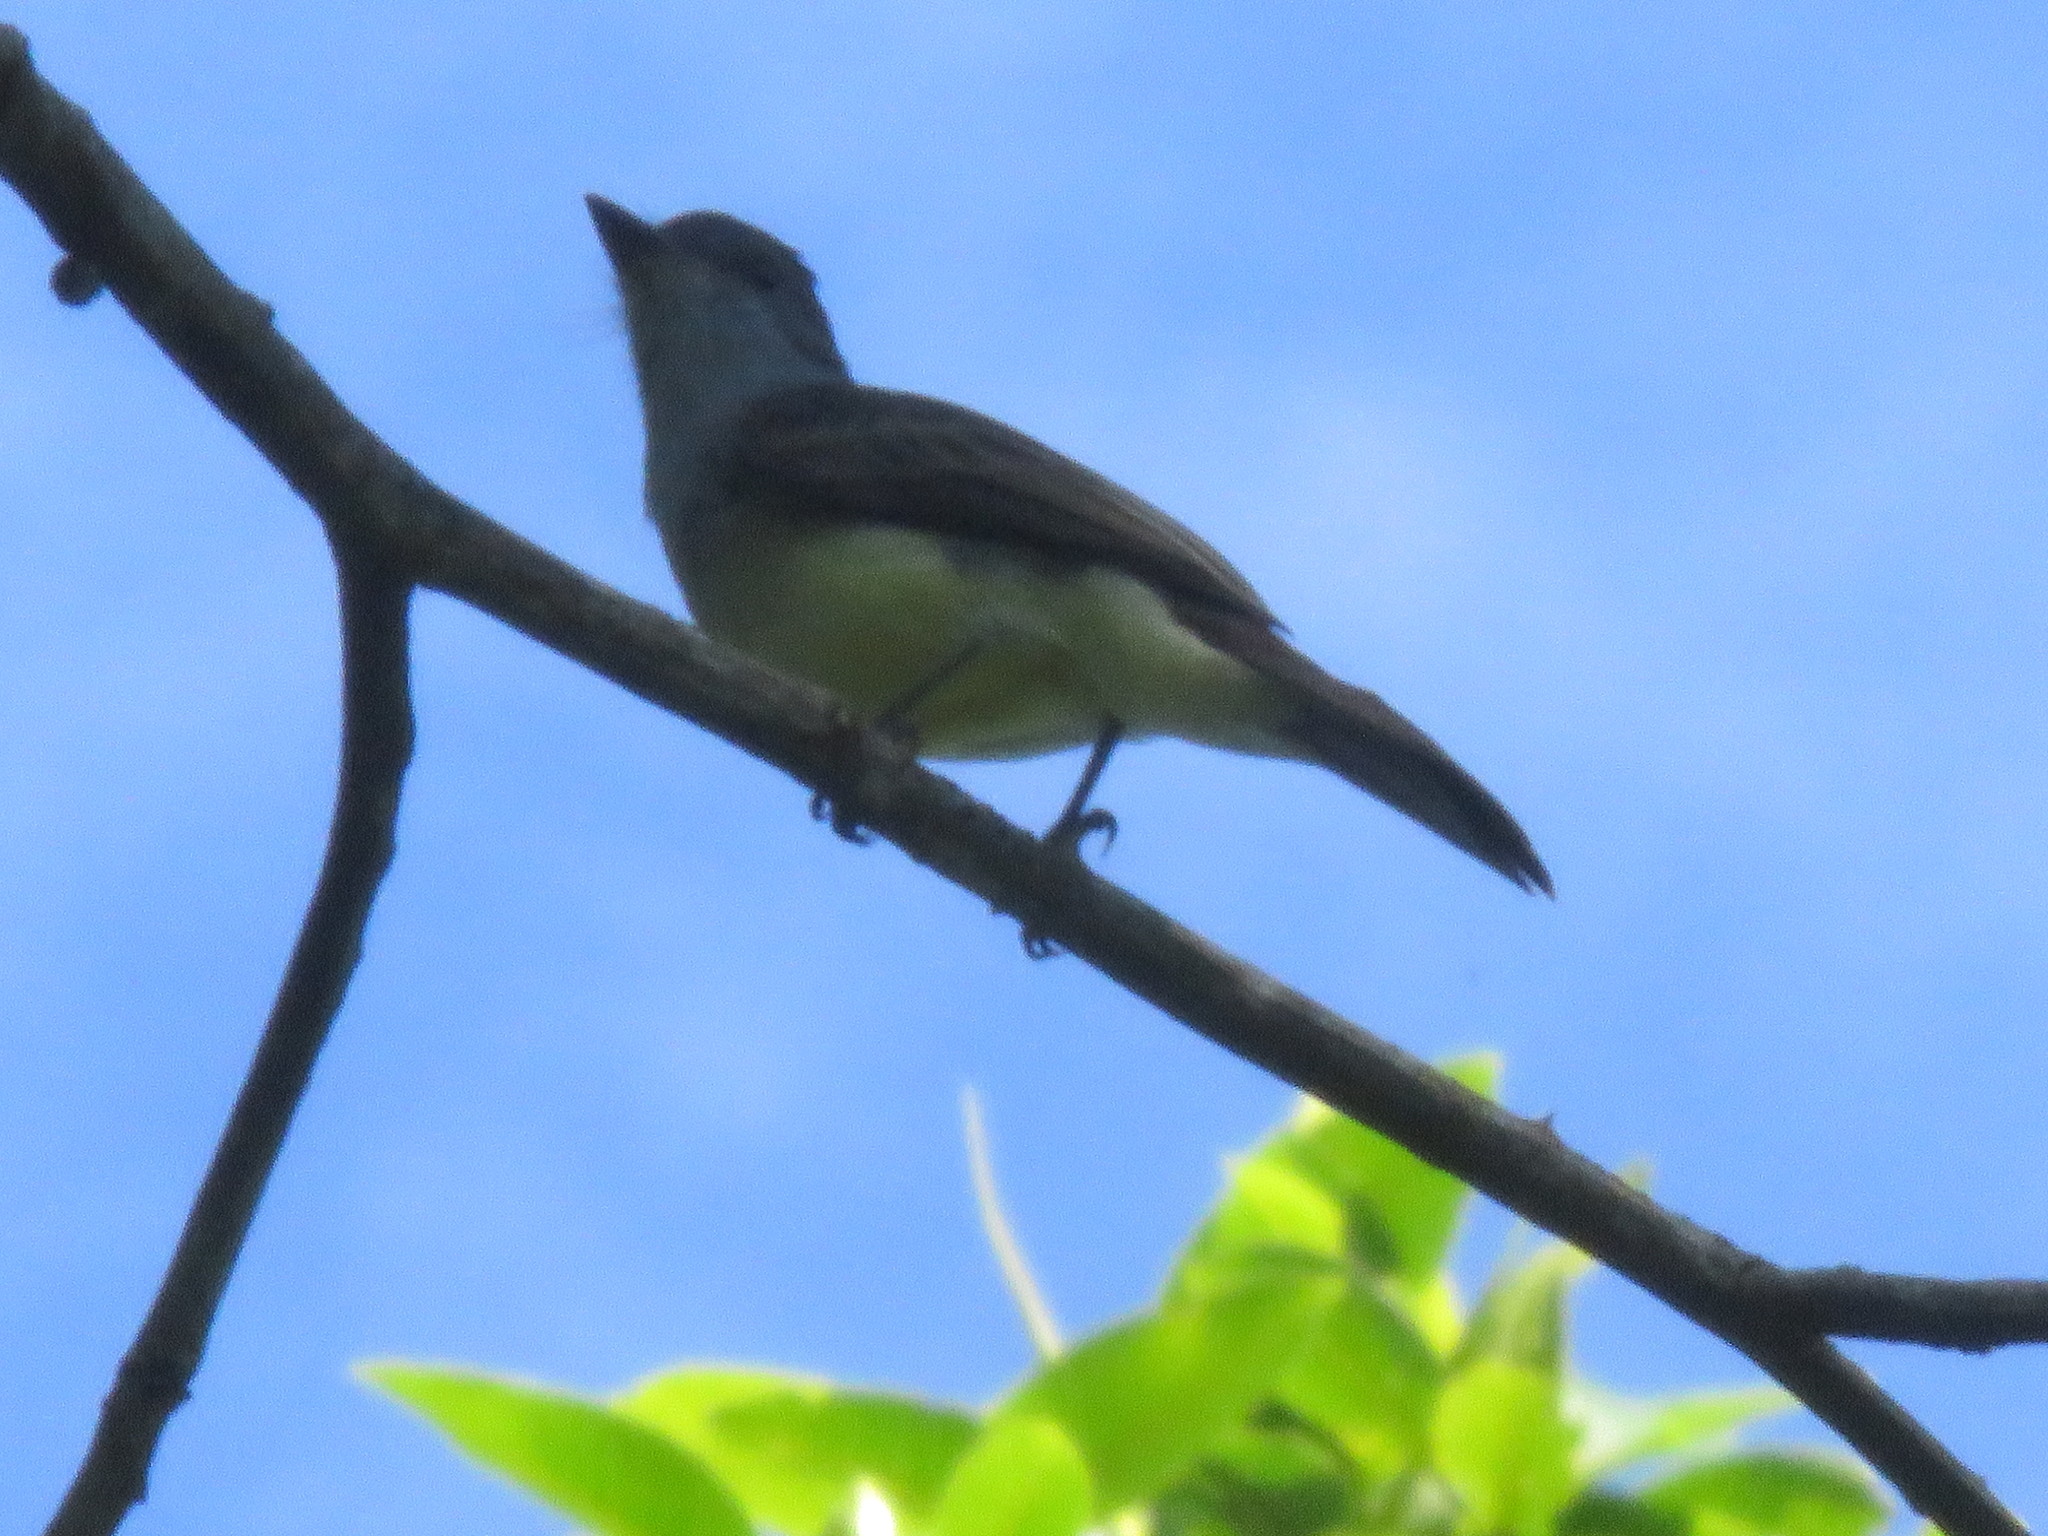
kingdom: Animalia
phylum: Chordata
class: Aves
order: Passeriformes
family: Tyrannidae
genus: Myiarchus
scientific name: Myiarchus swainsoni
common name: Swainson's flycatcher
